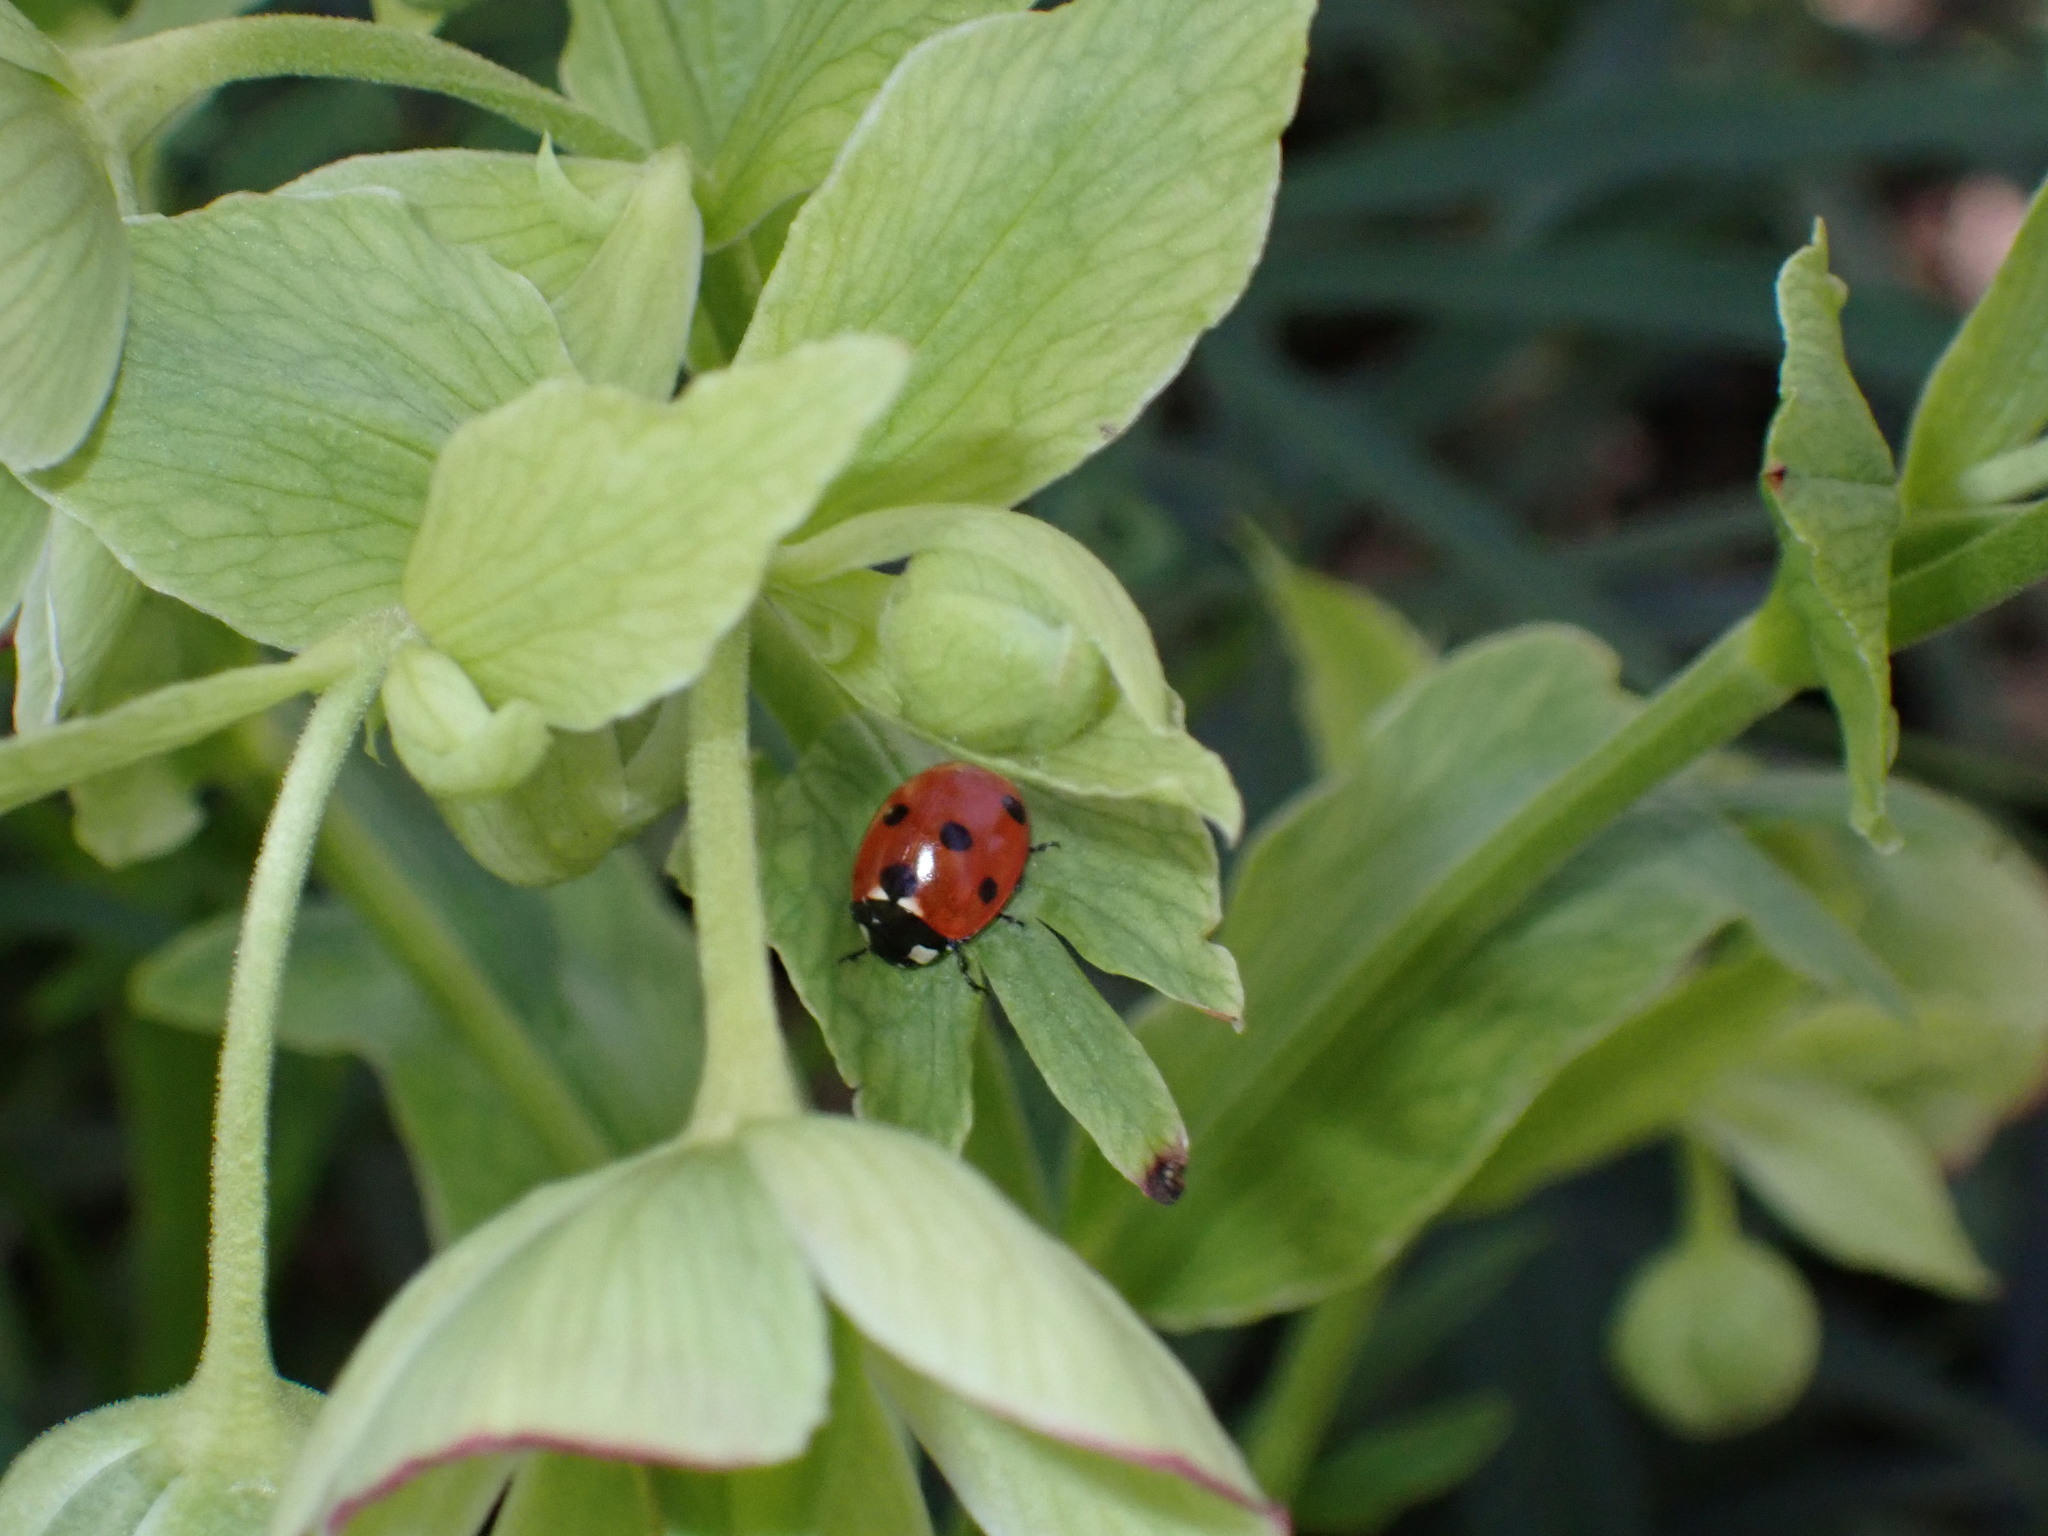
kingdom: Animalia
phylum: Arthropoda
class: Insecta
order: Coleoptera
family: Coccinellidae
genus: Coccinella
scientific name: Coccinella septempunctata
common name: Sevenspotted lady beetle
